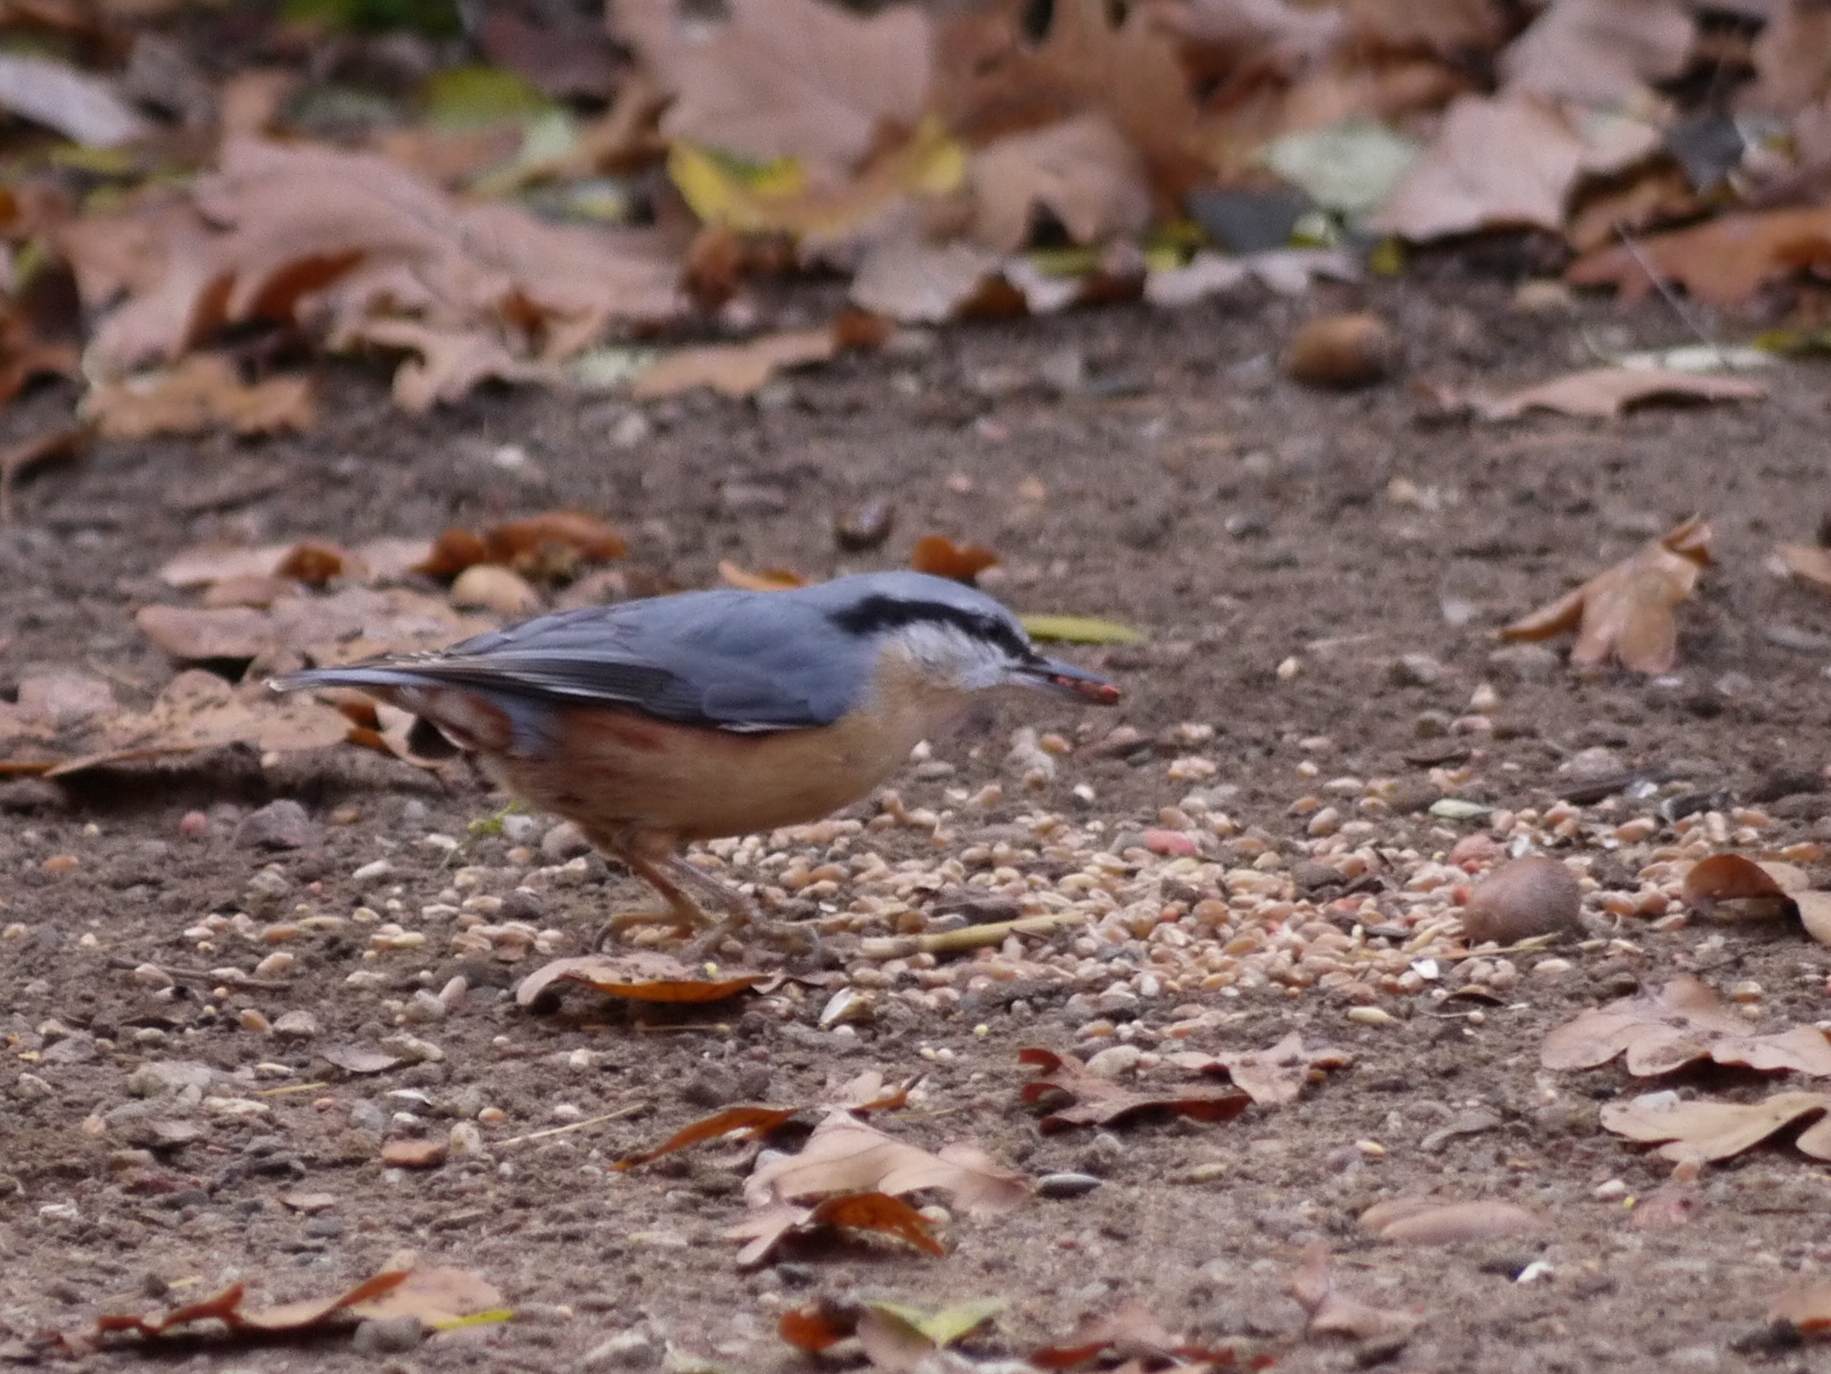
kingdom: Animalia
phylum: Chordata
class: Aves
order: Passeriformes
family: Sittidae
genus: Sitta
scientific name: Sitta europaea
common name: Eurasian nuthatch
